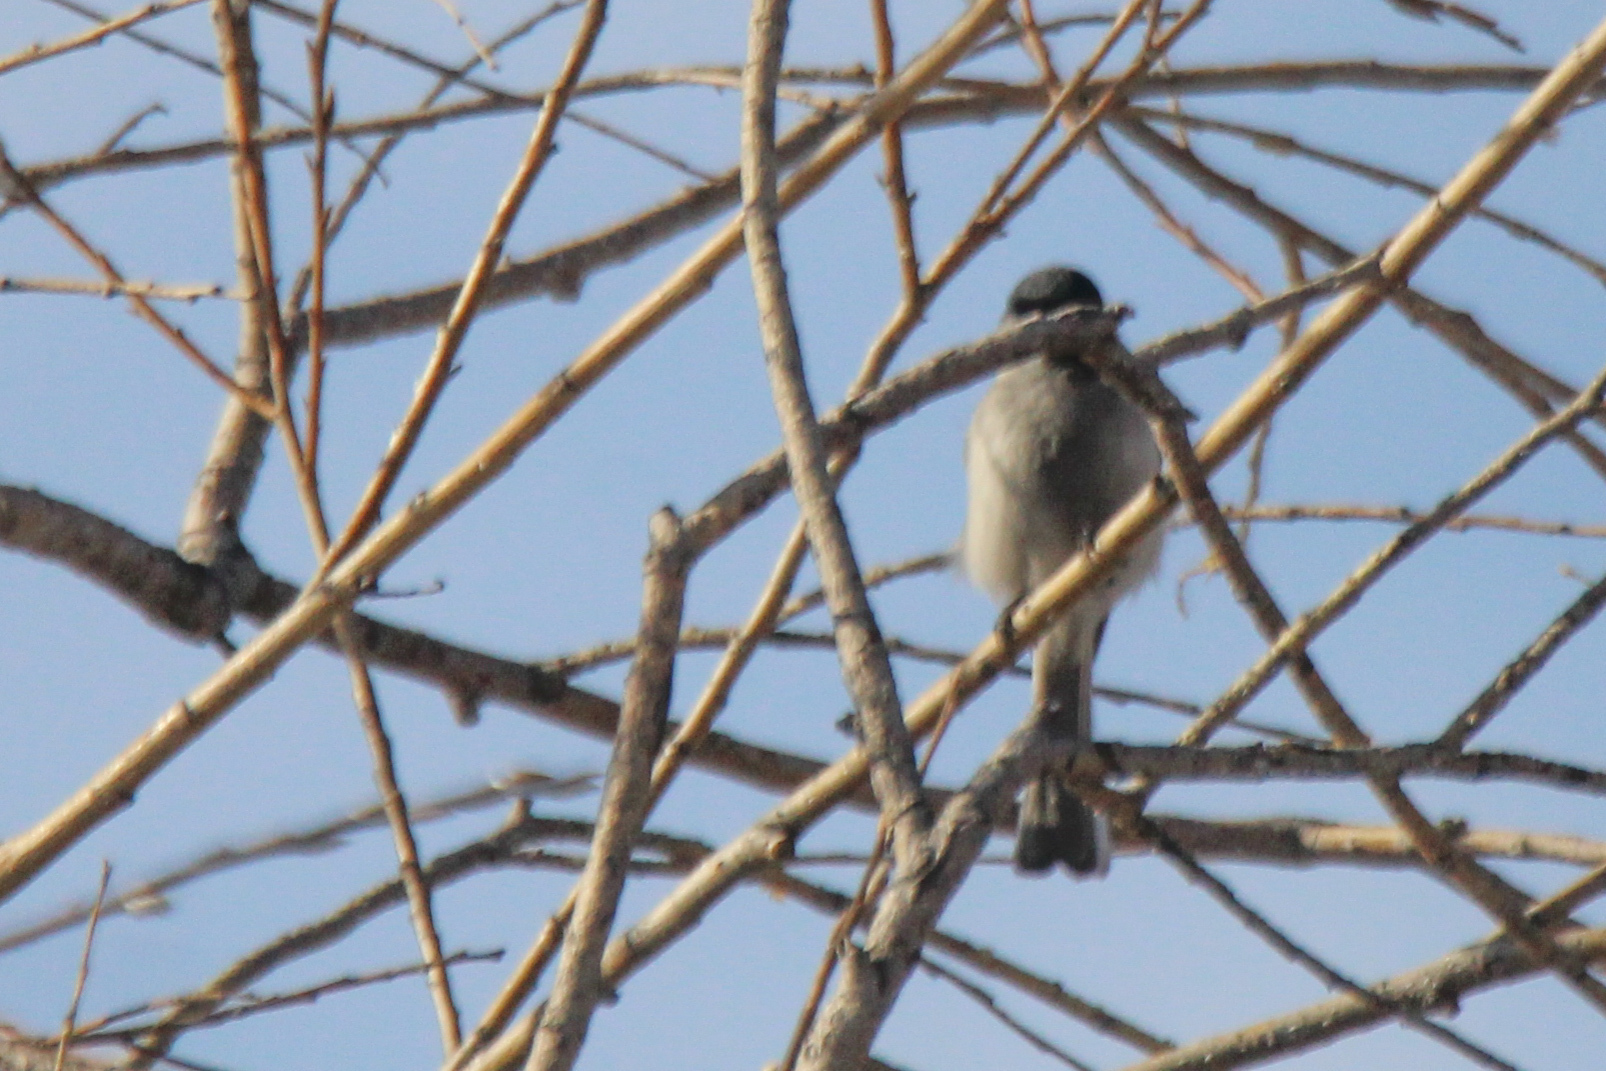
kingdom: Animalia
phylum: Chordata
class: Aves
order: Passeriformes
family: Paridae
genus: Poecile
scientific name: Poecile palustris
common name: Marsh tit
